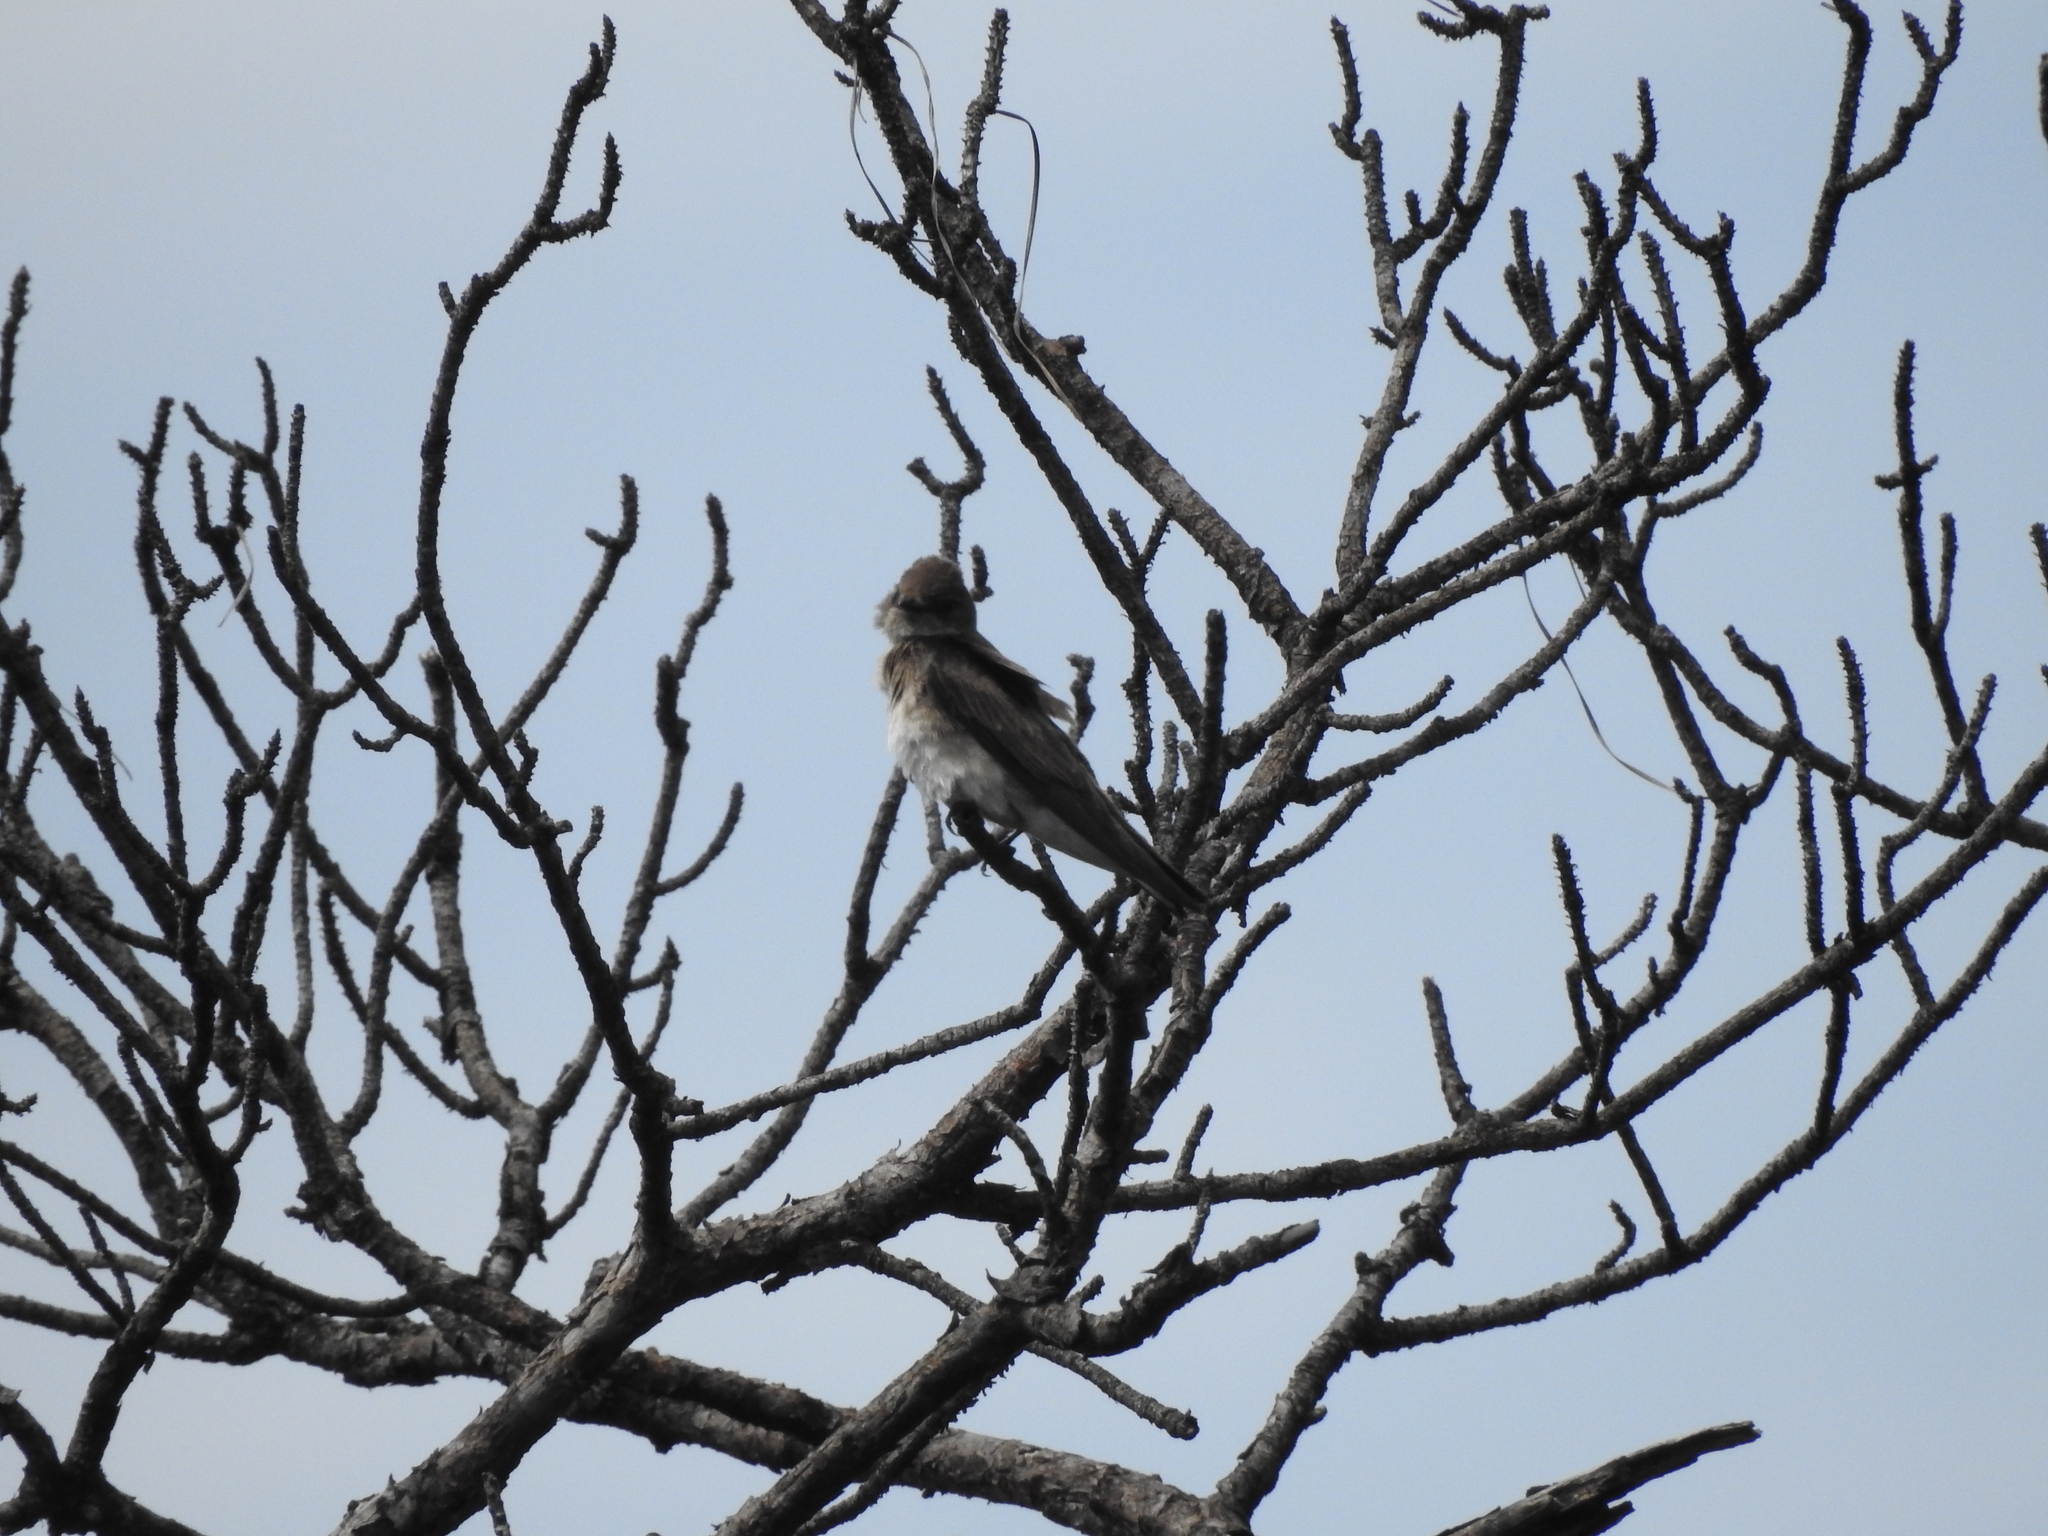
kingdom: Animalia
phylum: Chordata
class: Aves
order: Passeriformes
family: Hirundinidae
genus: Stelgidopteryx
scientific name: Stelgidopteryx serripennis
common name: Northern rough-winged swallow
